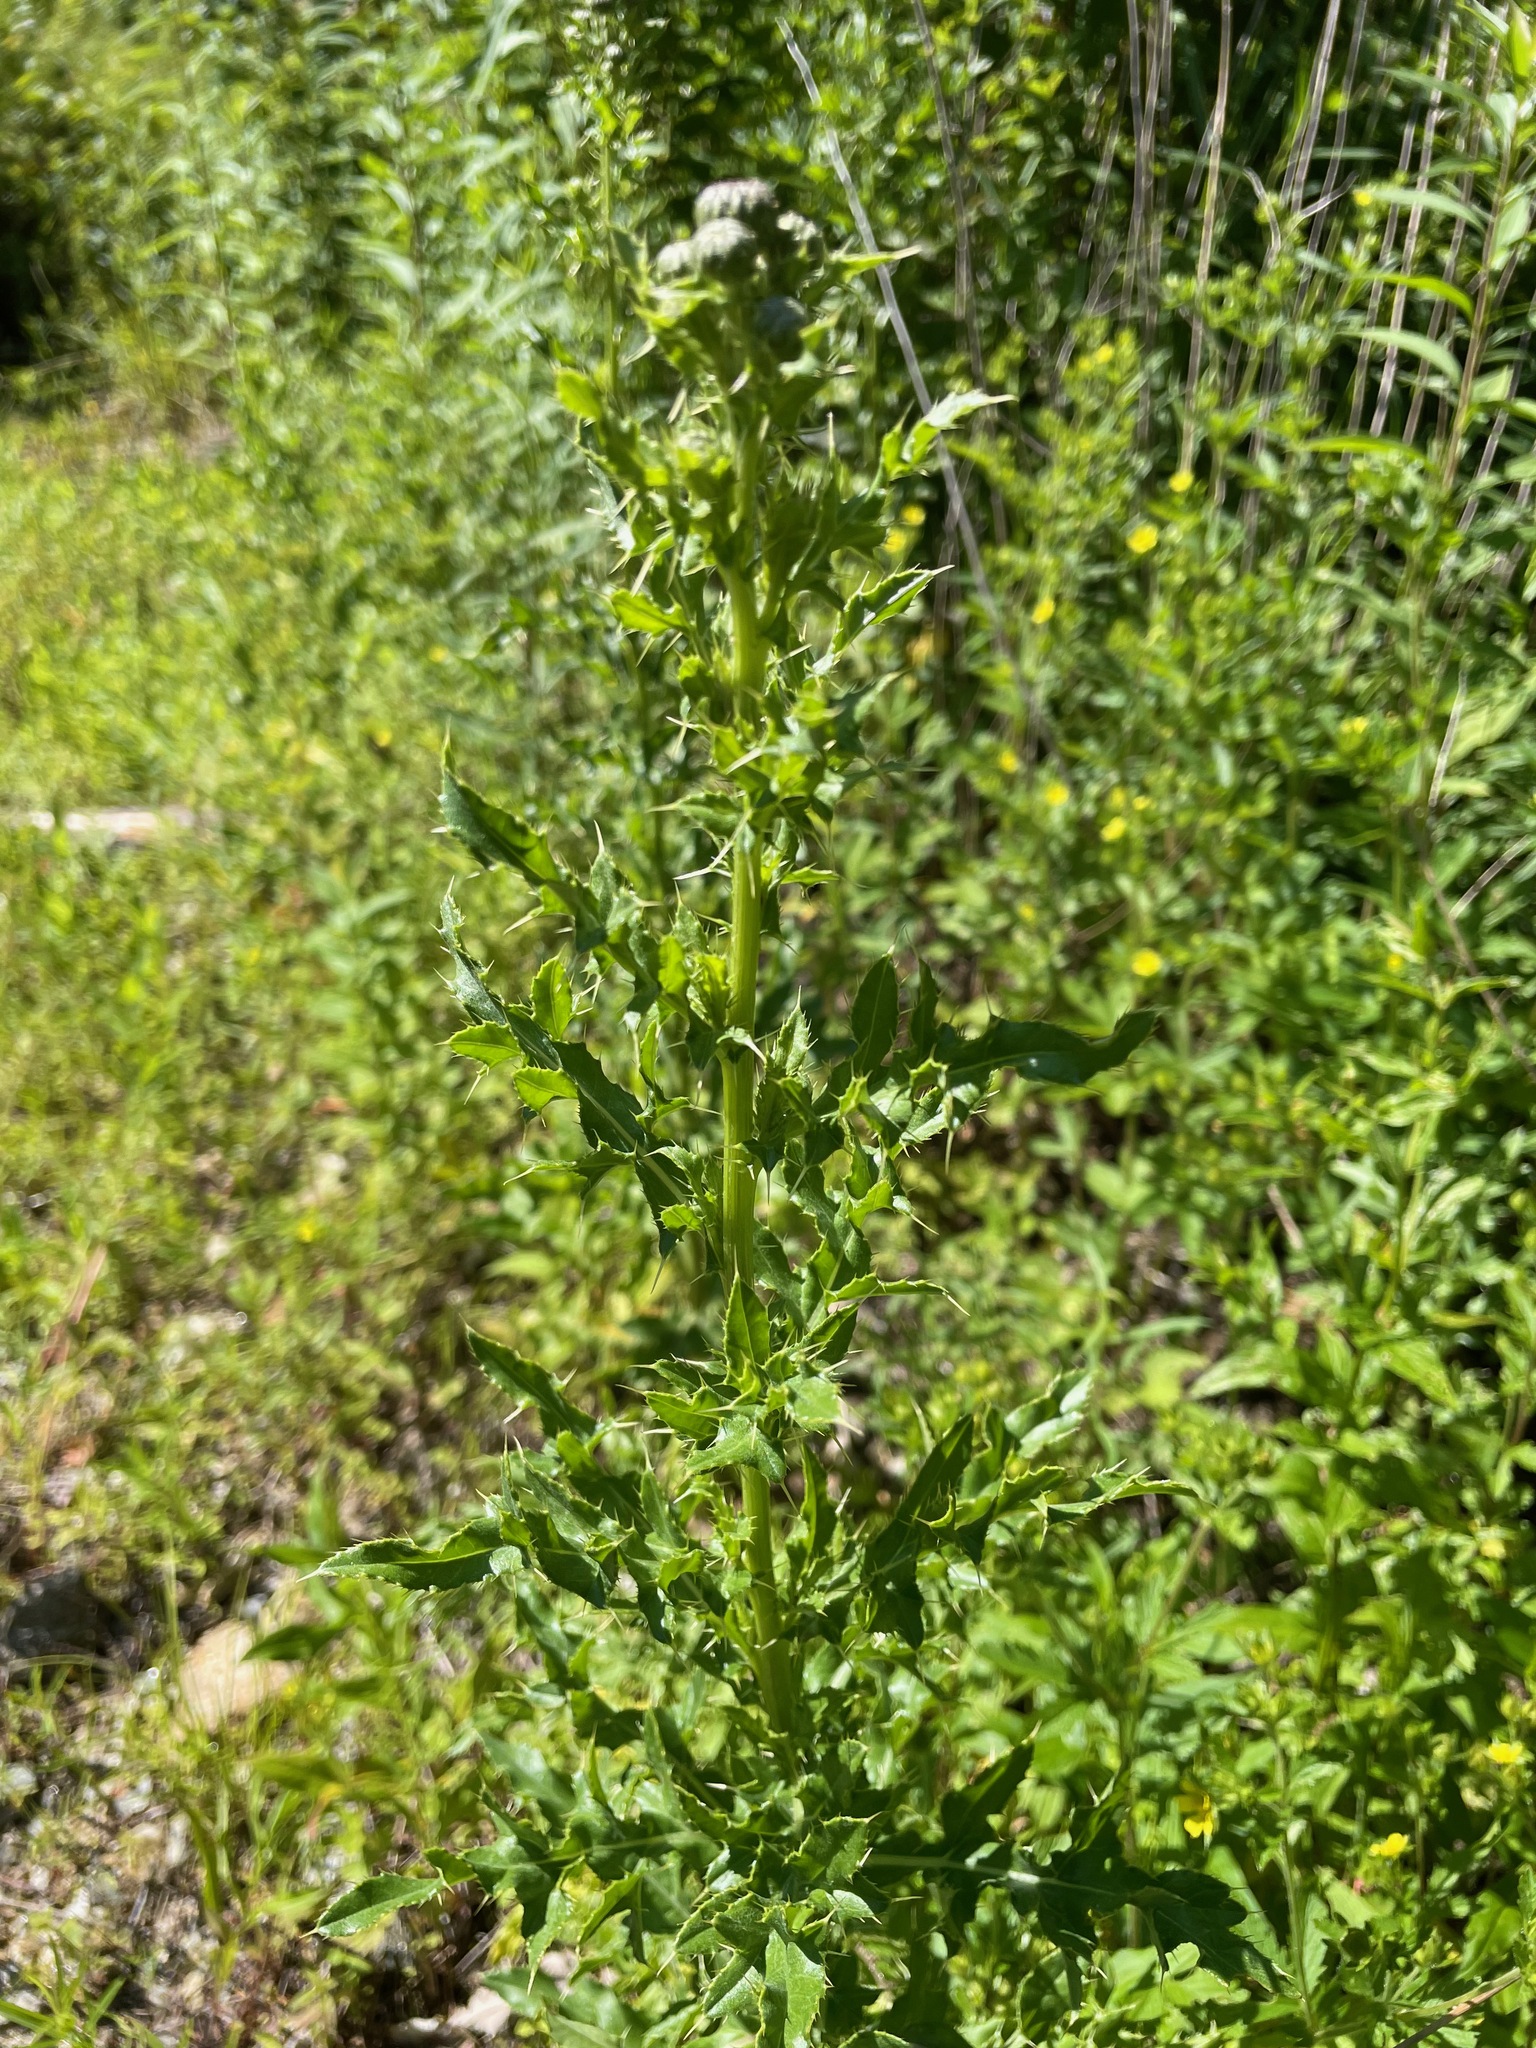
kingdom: Plantae
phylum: Tracheophyta
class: Magnoliopsida
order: Asterales
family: Asteraceae
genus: Cirsium
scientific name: Cirsium arvense
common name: Creeping thistle
